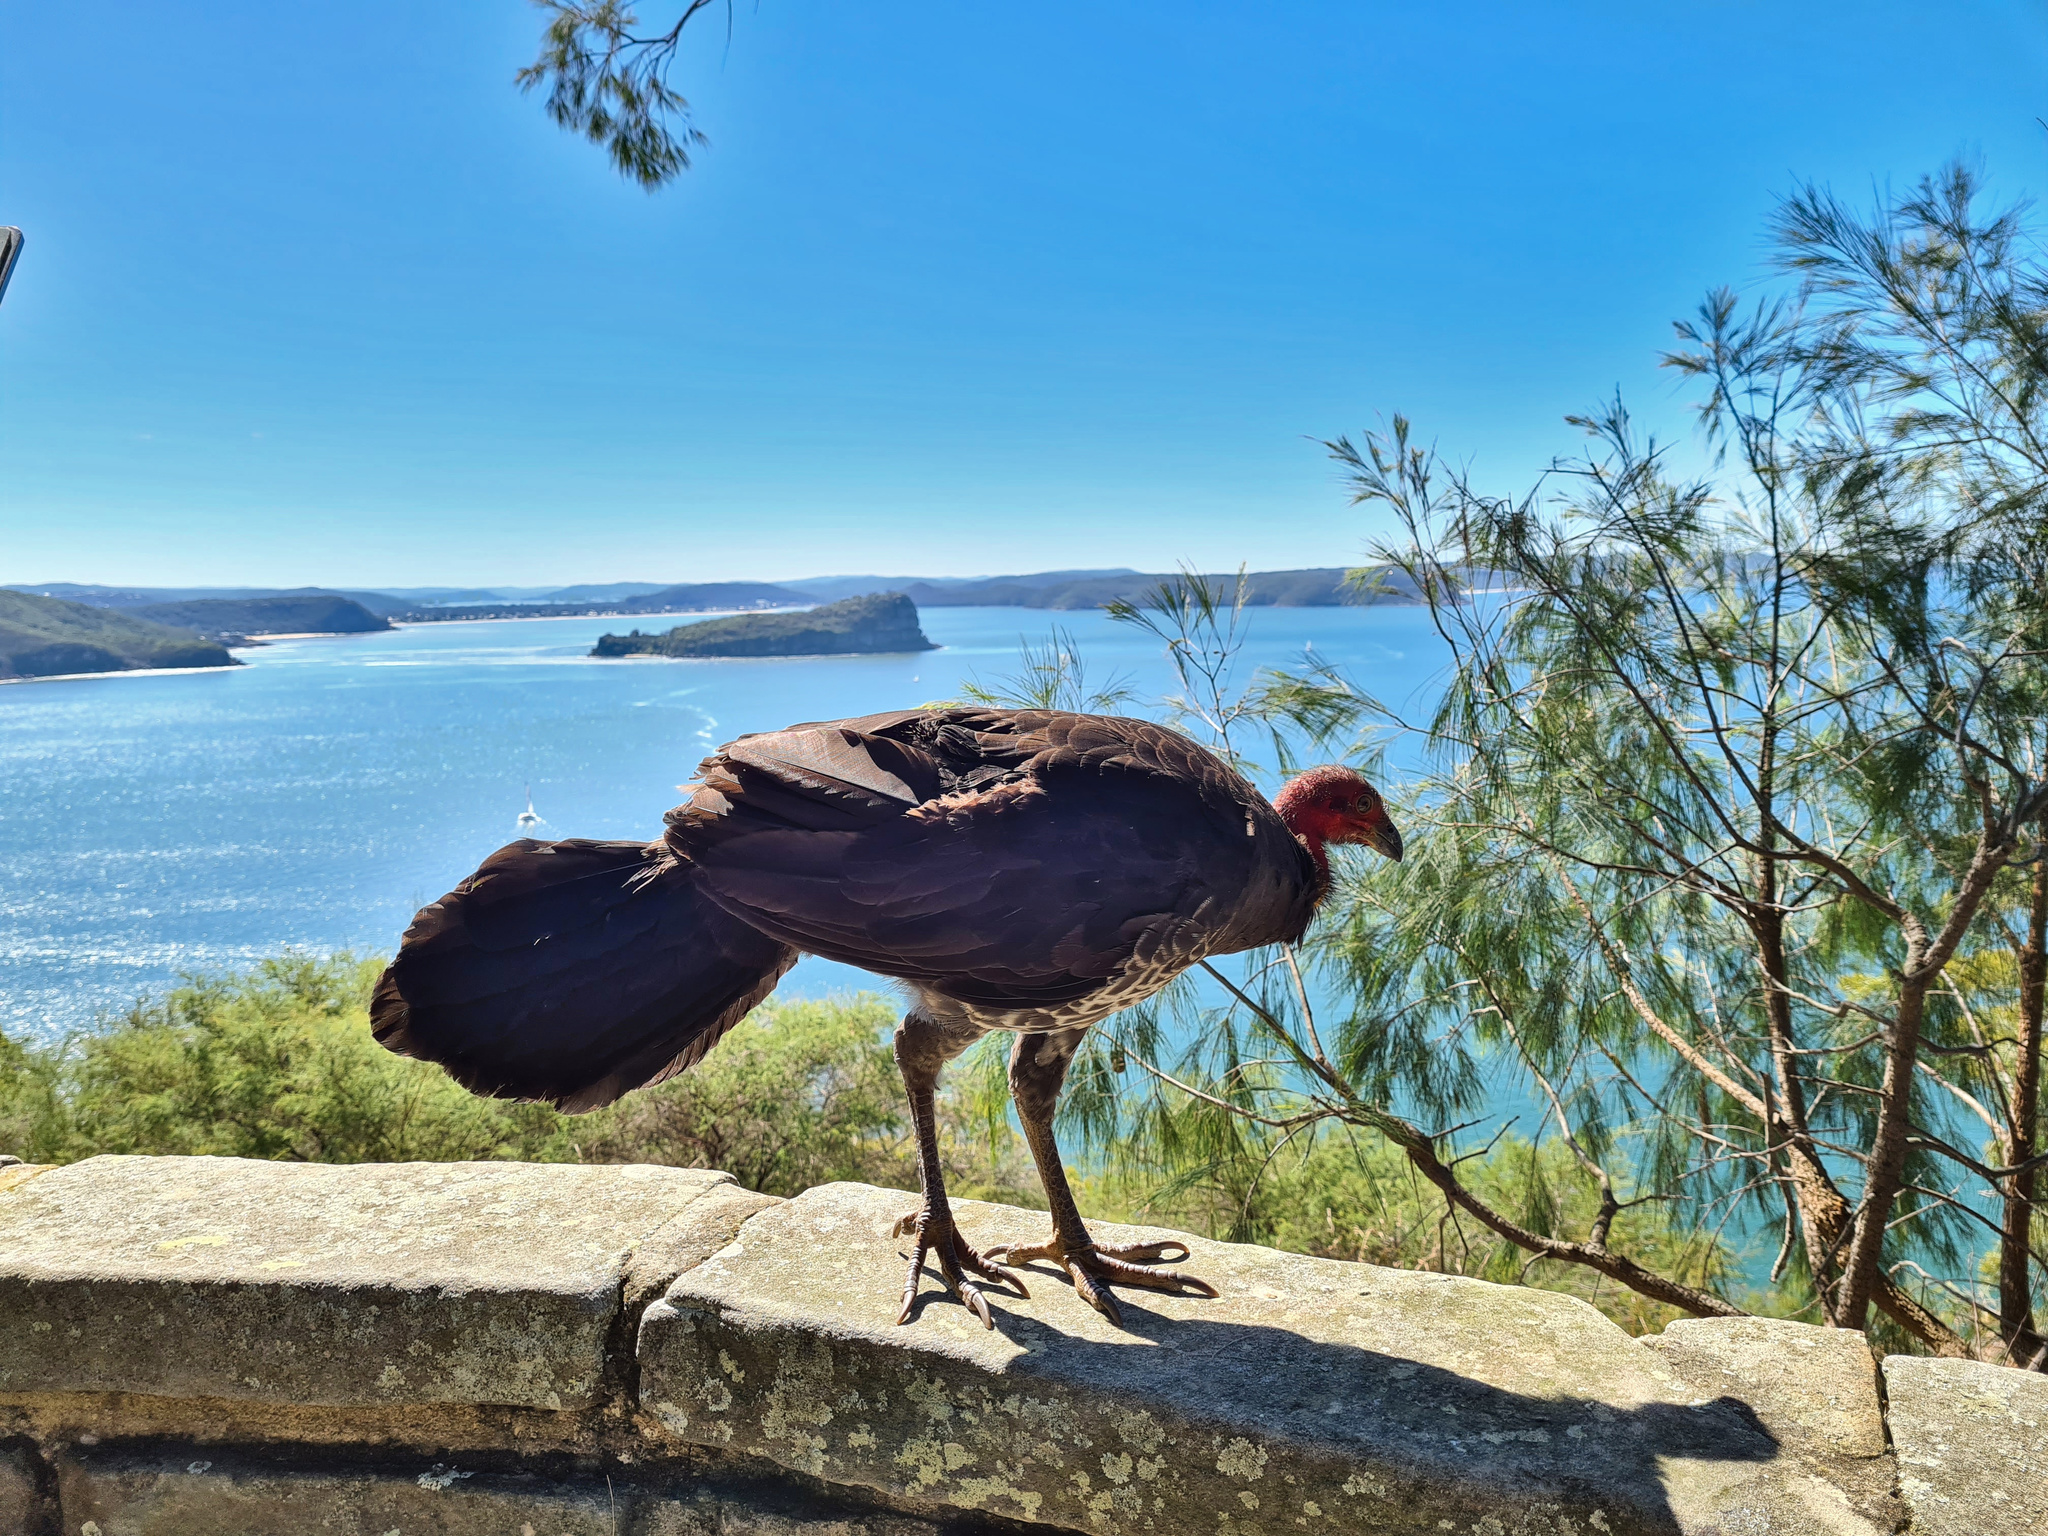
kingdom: Animalia
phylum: Chordata
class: Aves
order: Galliformes
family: Megapodiidae
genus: Alectura
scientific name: Alectura lathami
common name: Australian brushturkey
